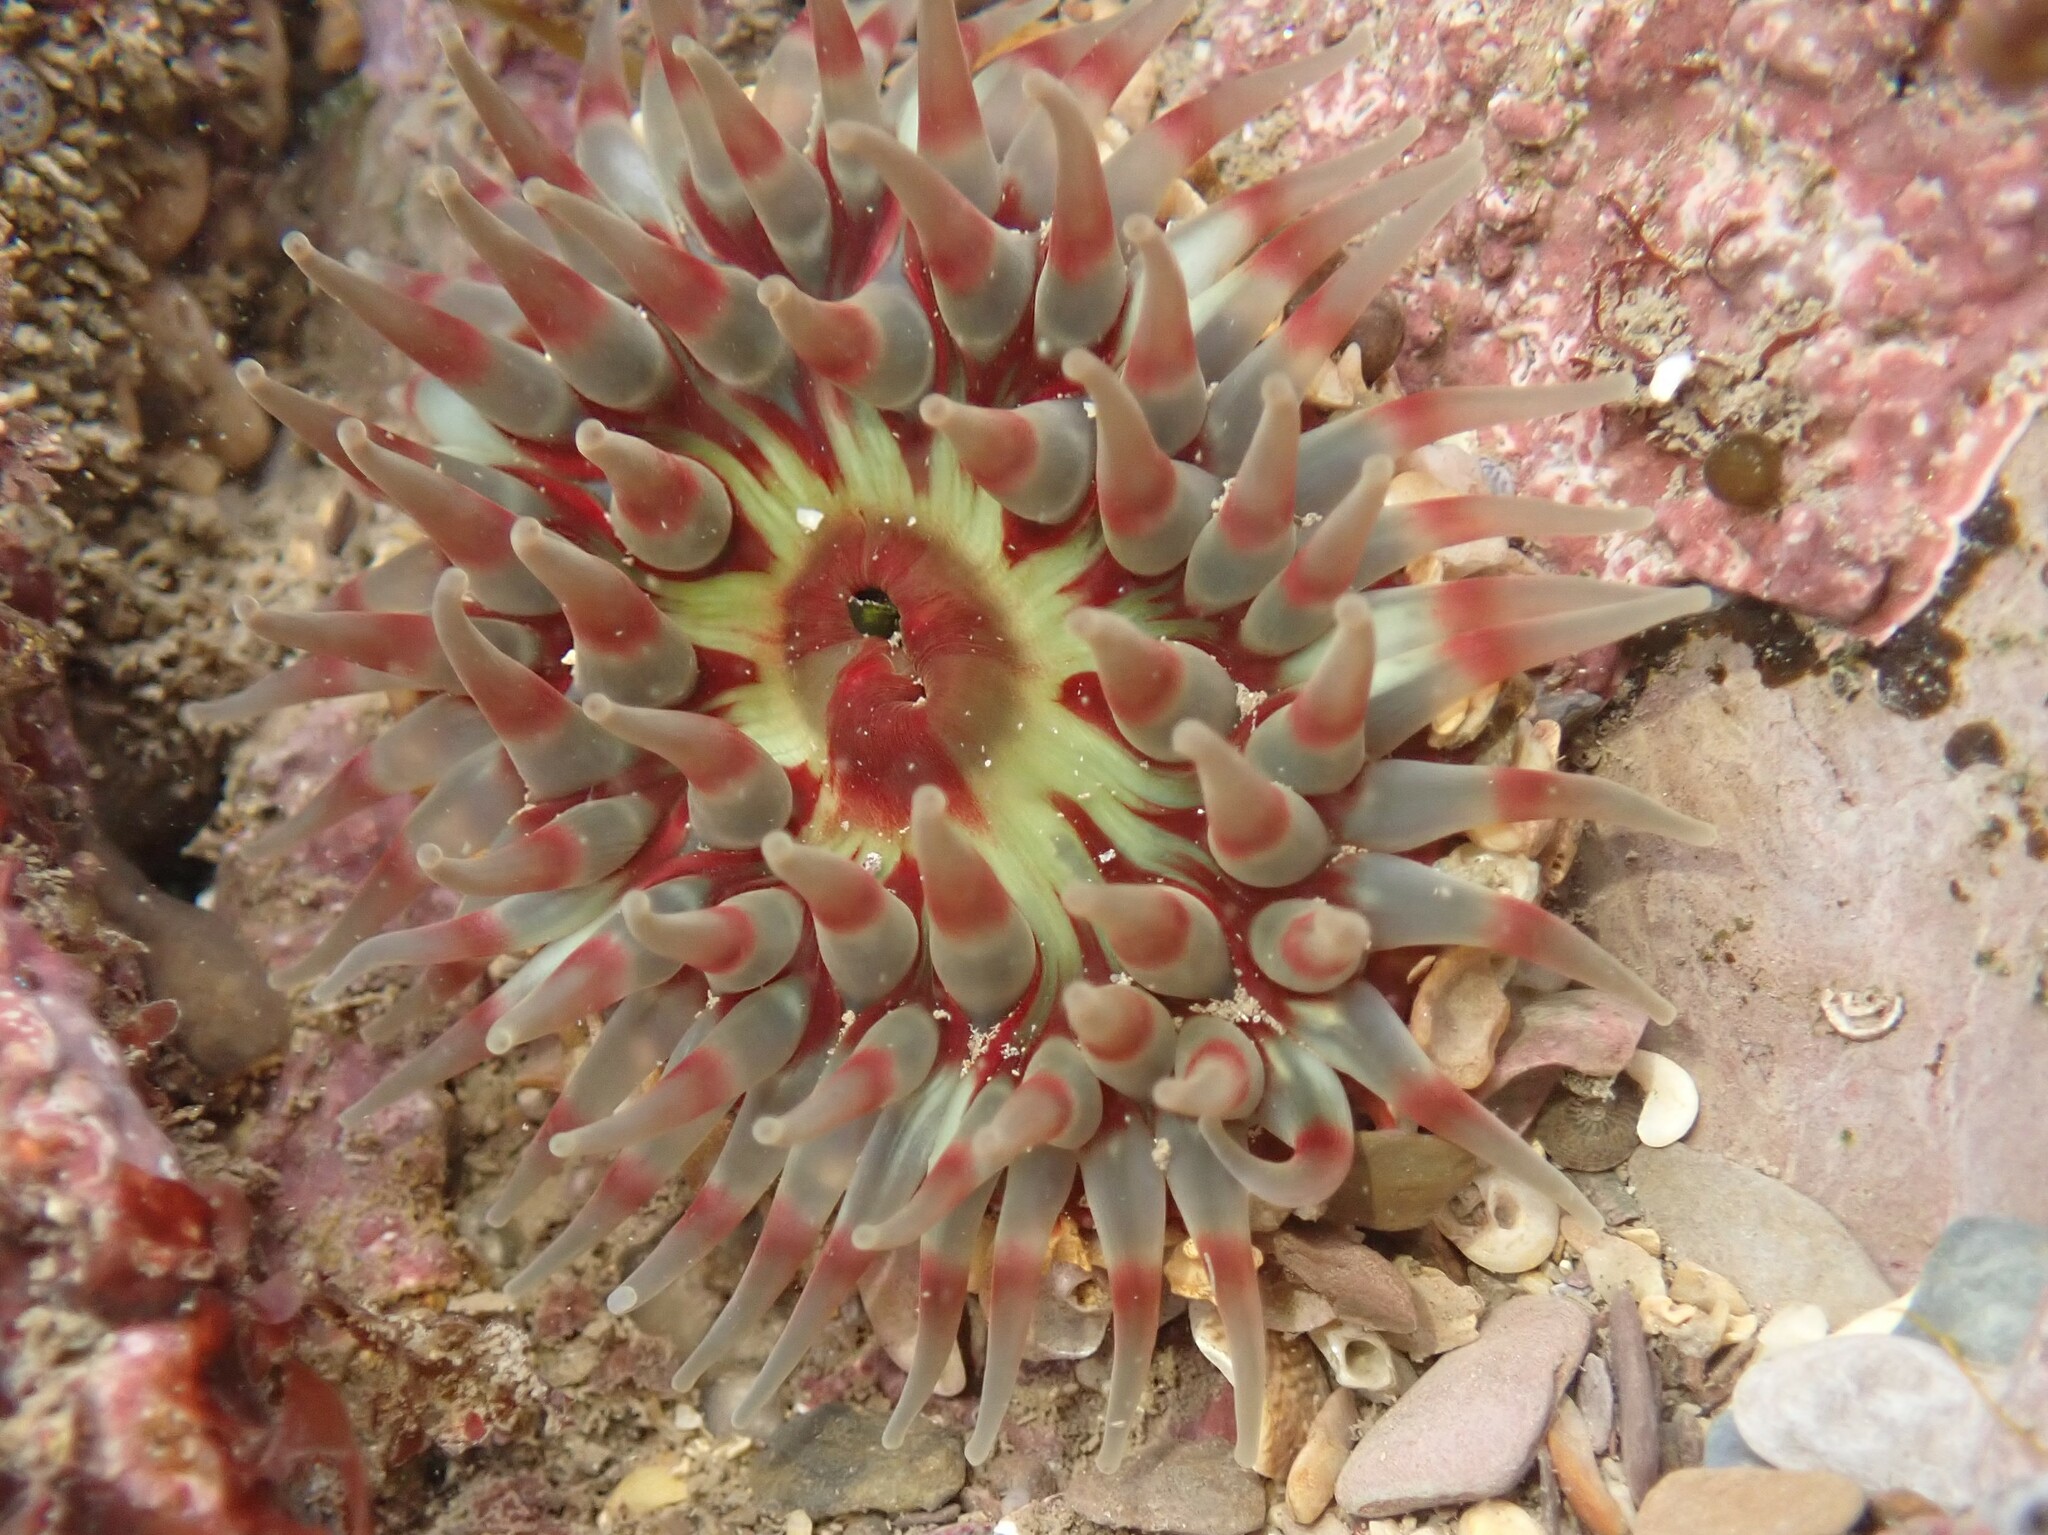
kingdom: Animalia
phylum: Cnidaria
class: Anthozoa
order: Actiniaria
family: Actiniidae
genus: Urticina
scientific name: Urticina felina
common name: Dahlia anemone
